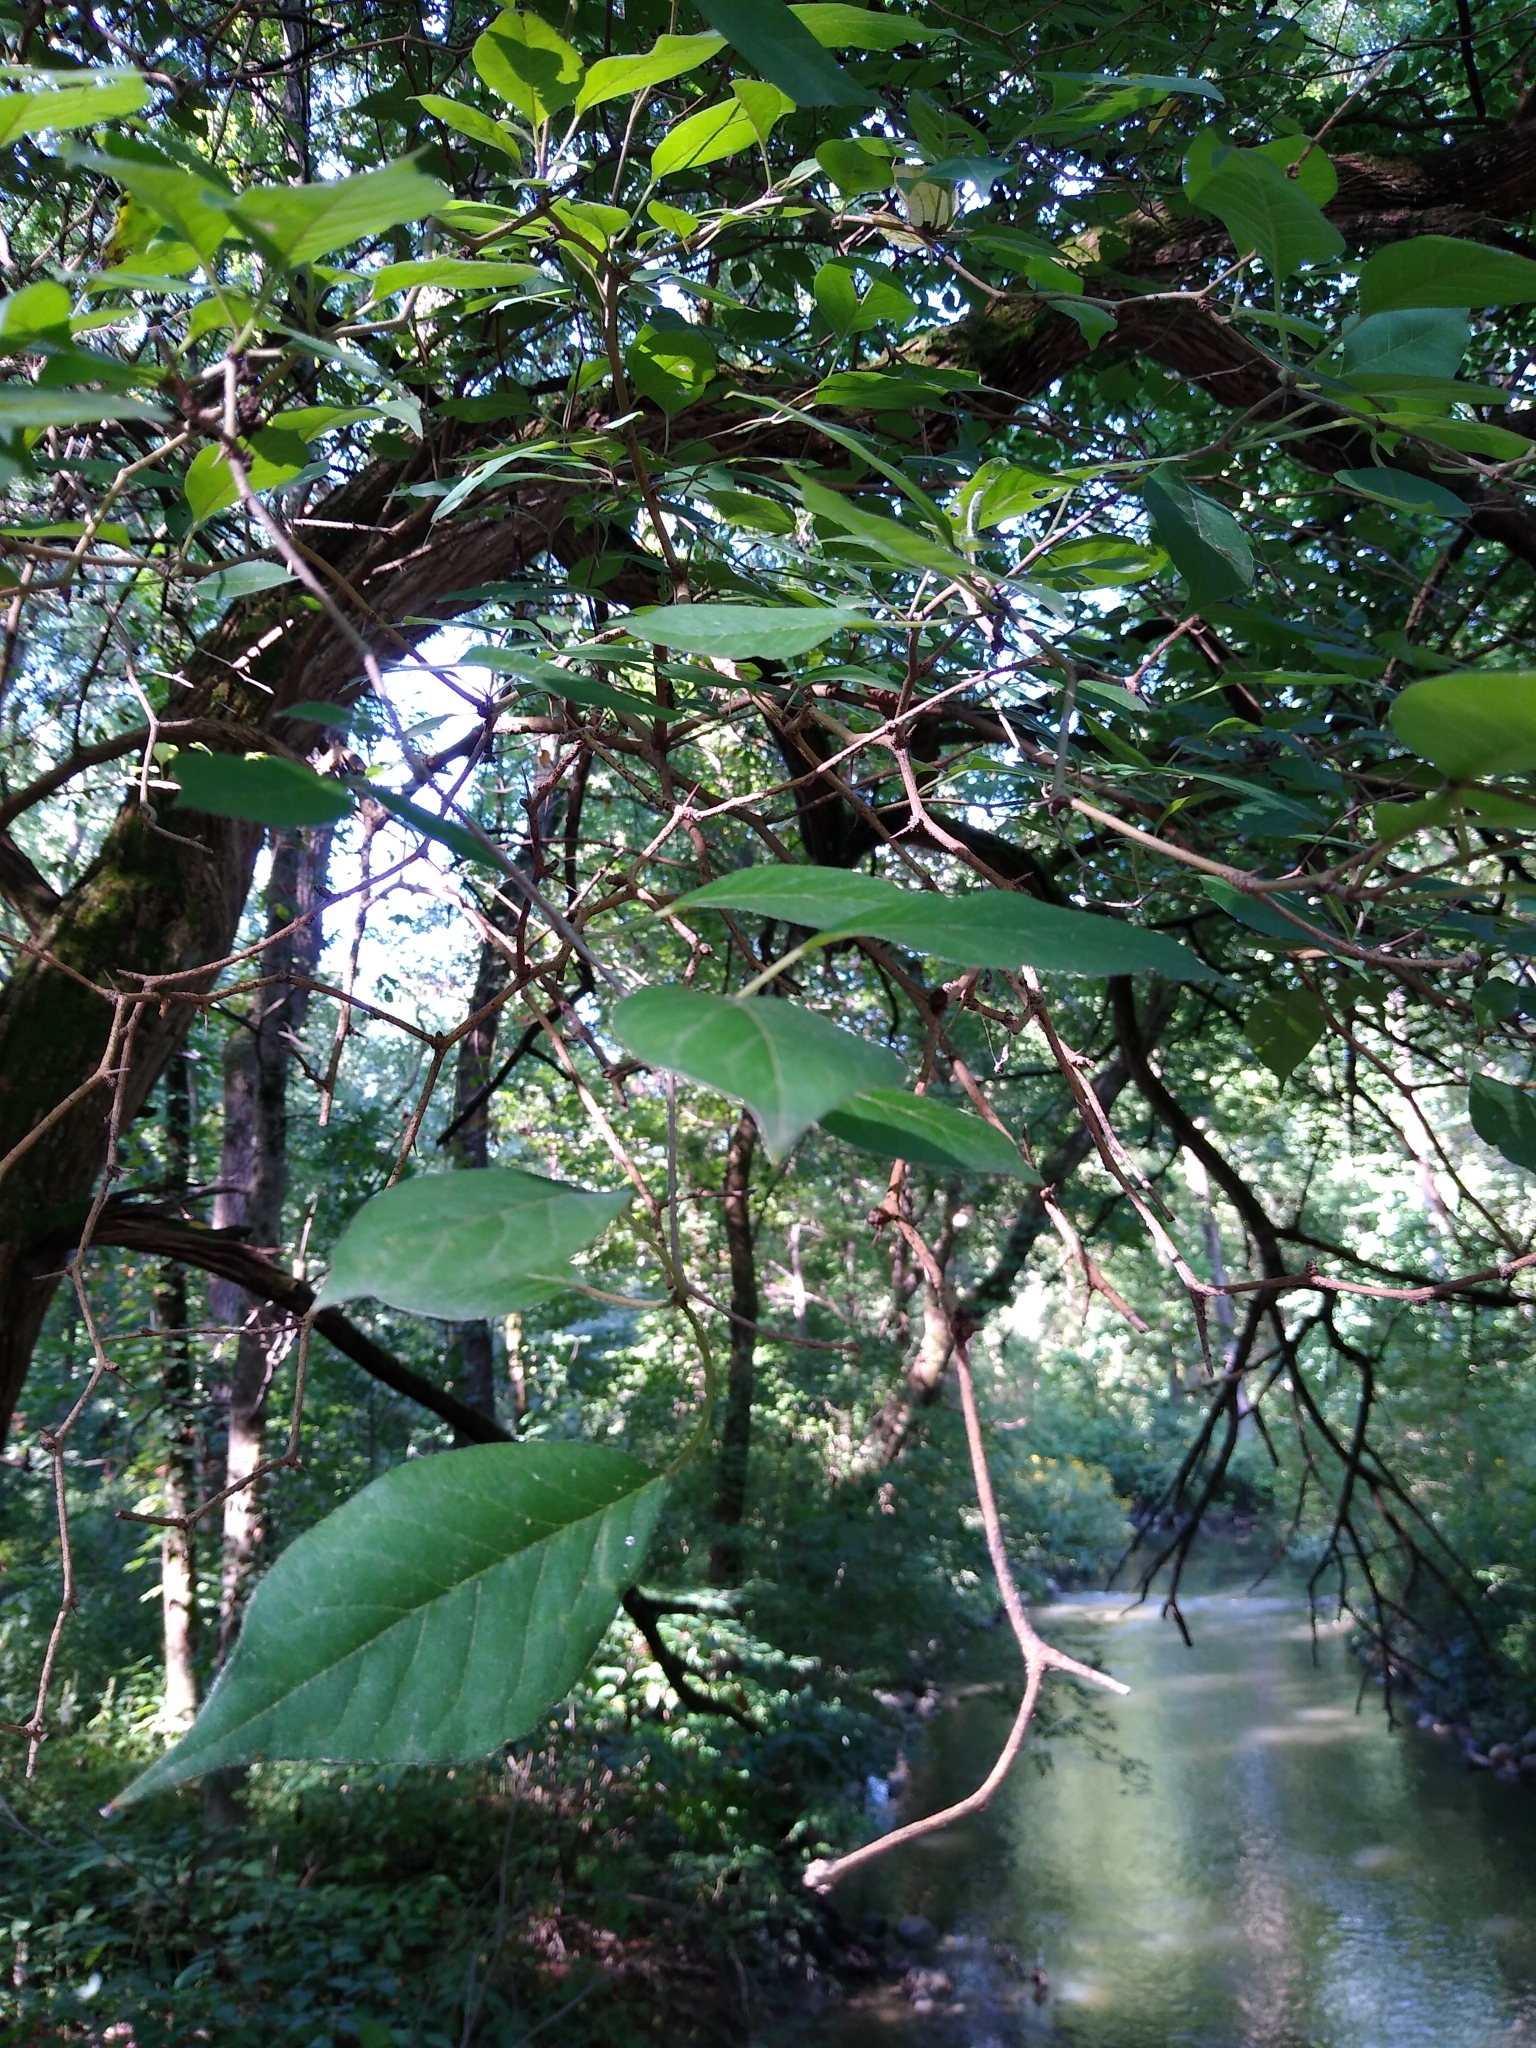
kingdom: Plantae
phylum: Tracheophyta
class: Magnoliopsida
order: Rosales
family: Moraceae
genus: Maclura
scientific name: Maclura pomifera
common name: Osage-orange
